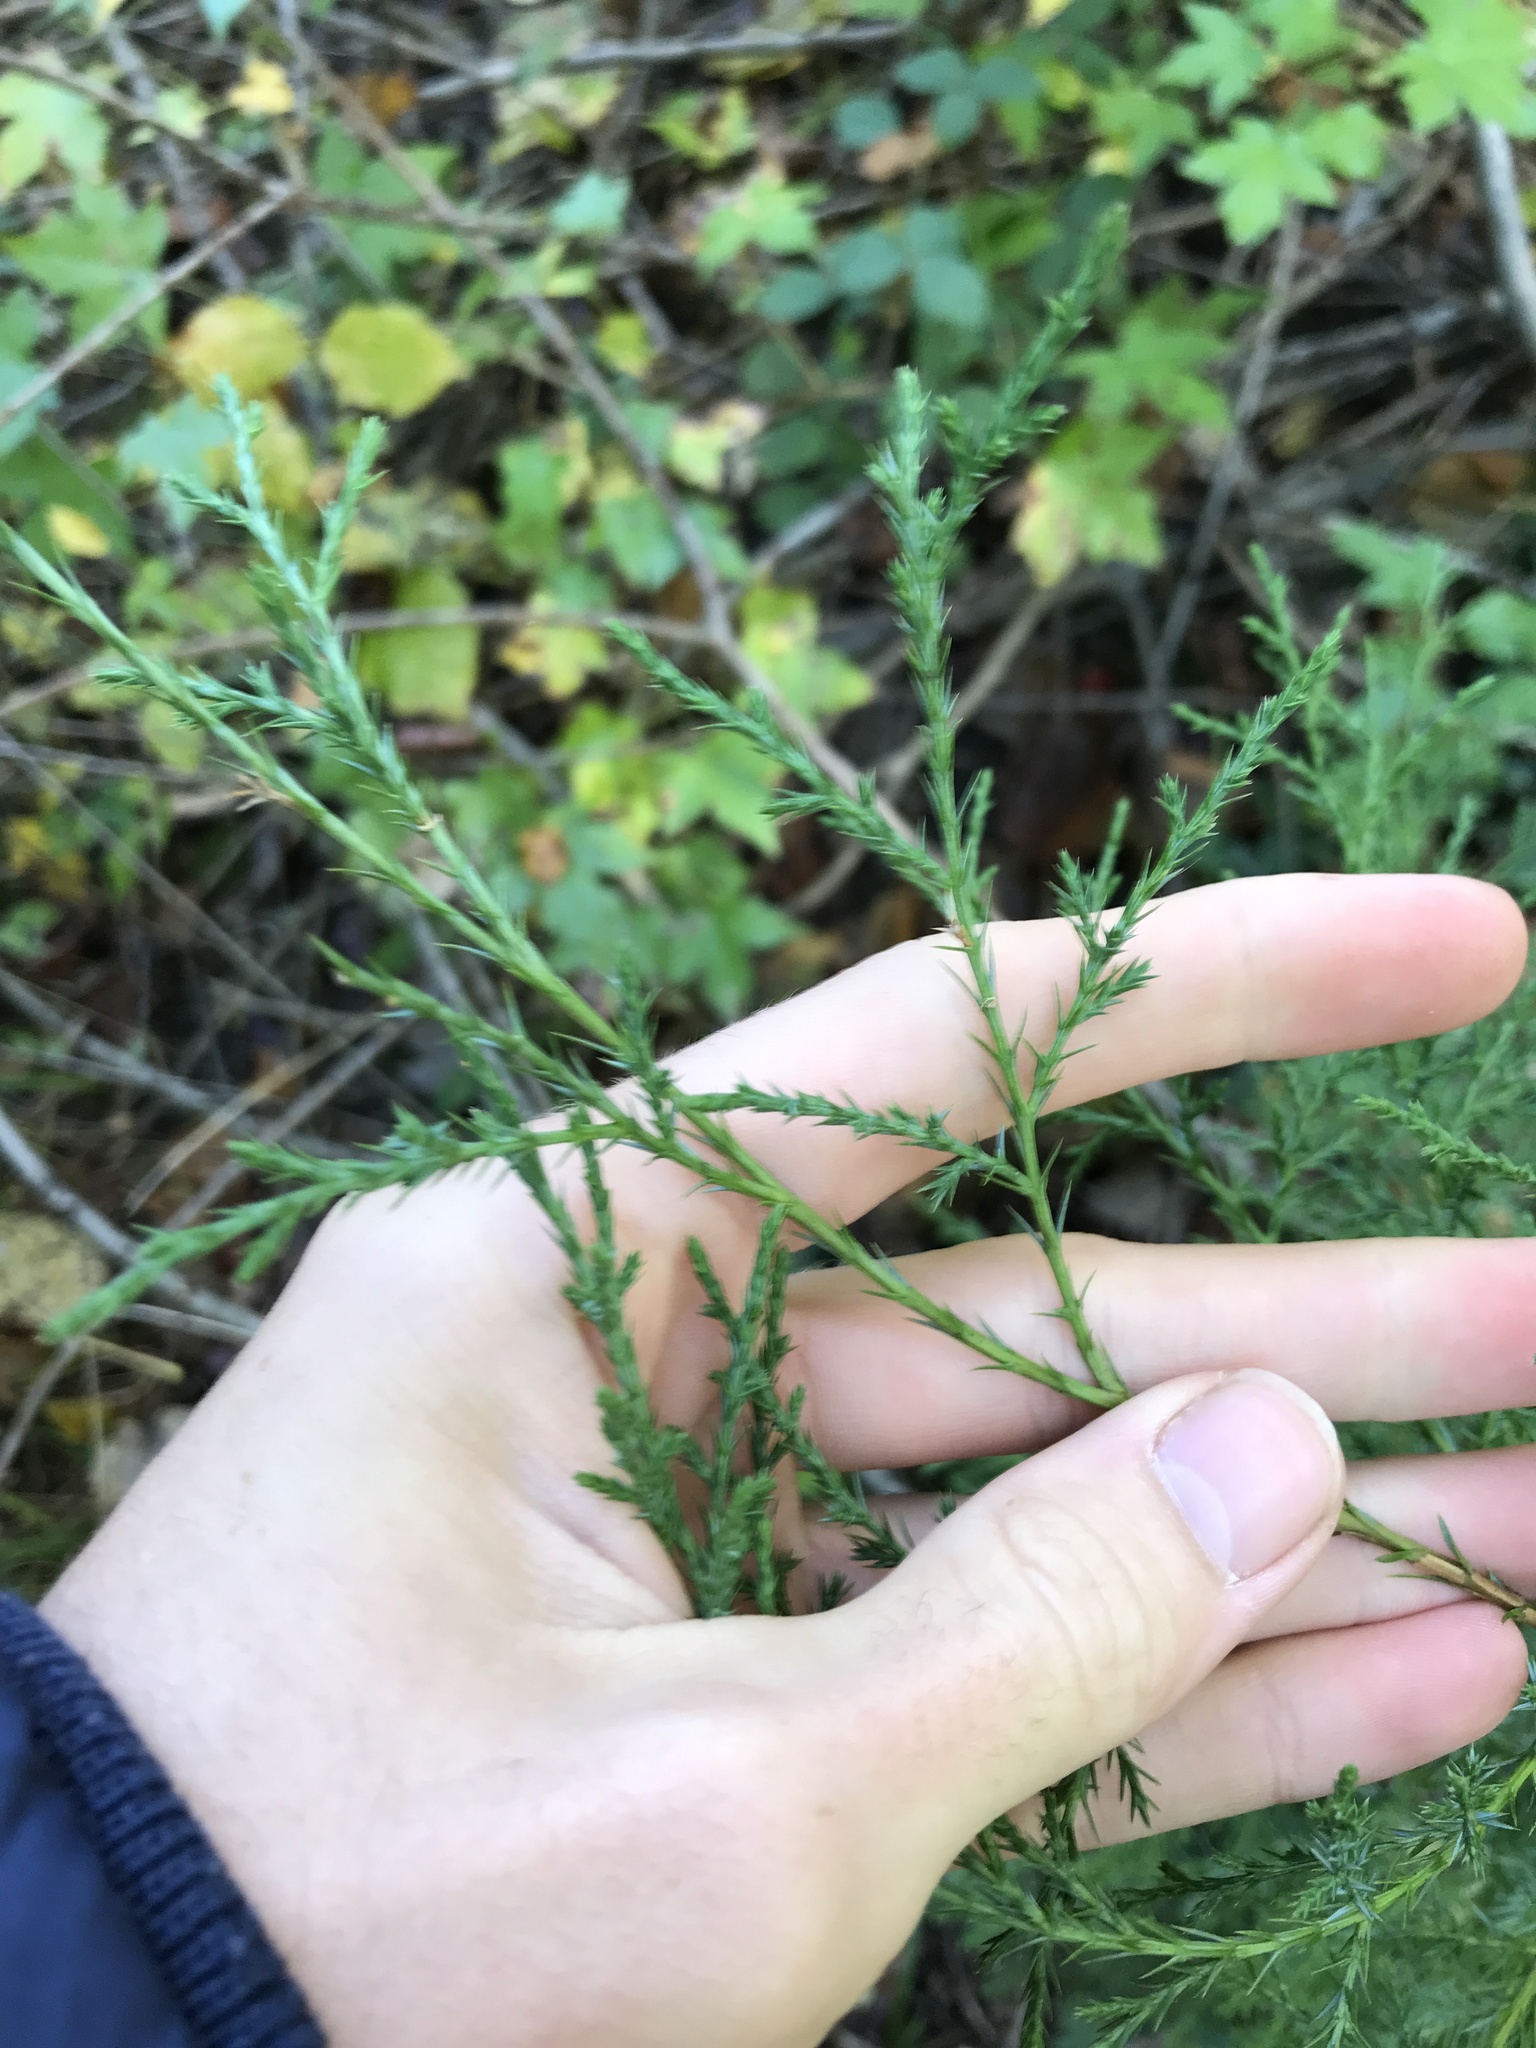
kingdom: Plantae
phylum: Tracheophyta
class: Pinopsida
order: Pinales
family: Cupressaceae
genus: Juniperus
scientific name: Juniperus virginiana
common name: Red juniper
